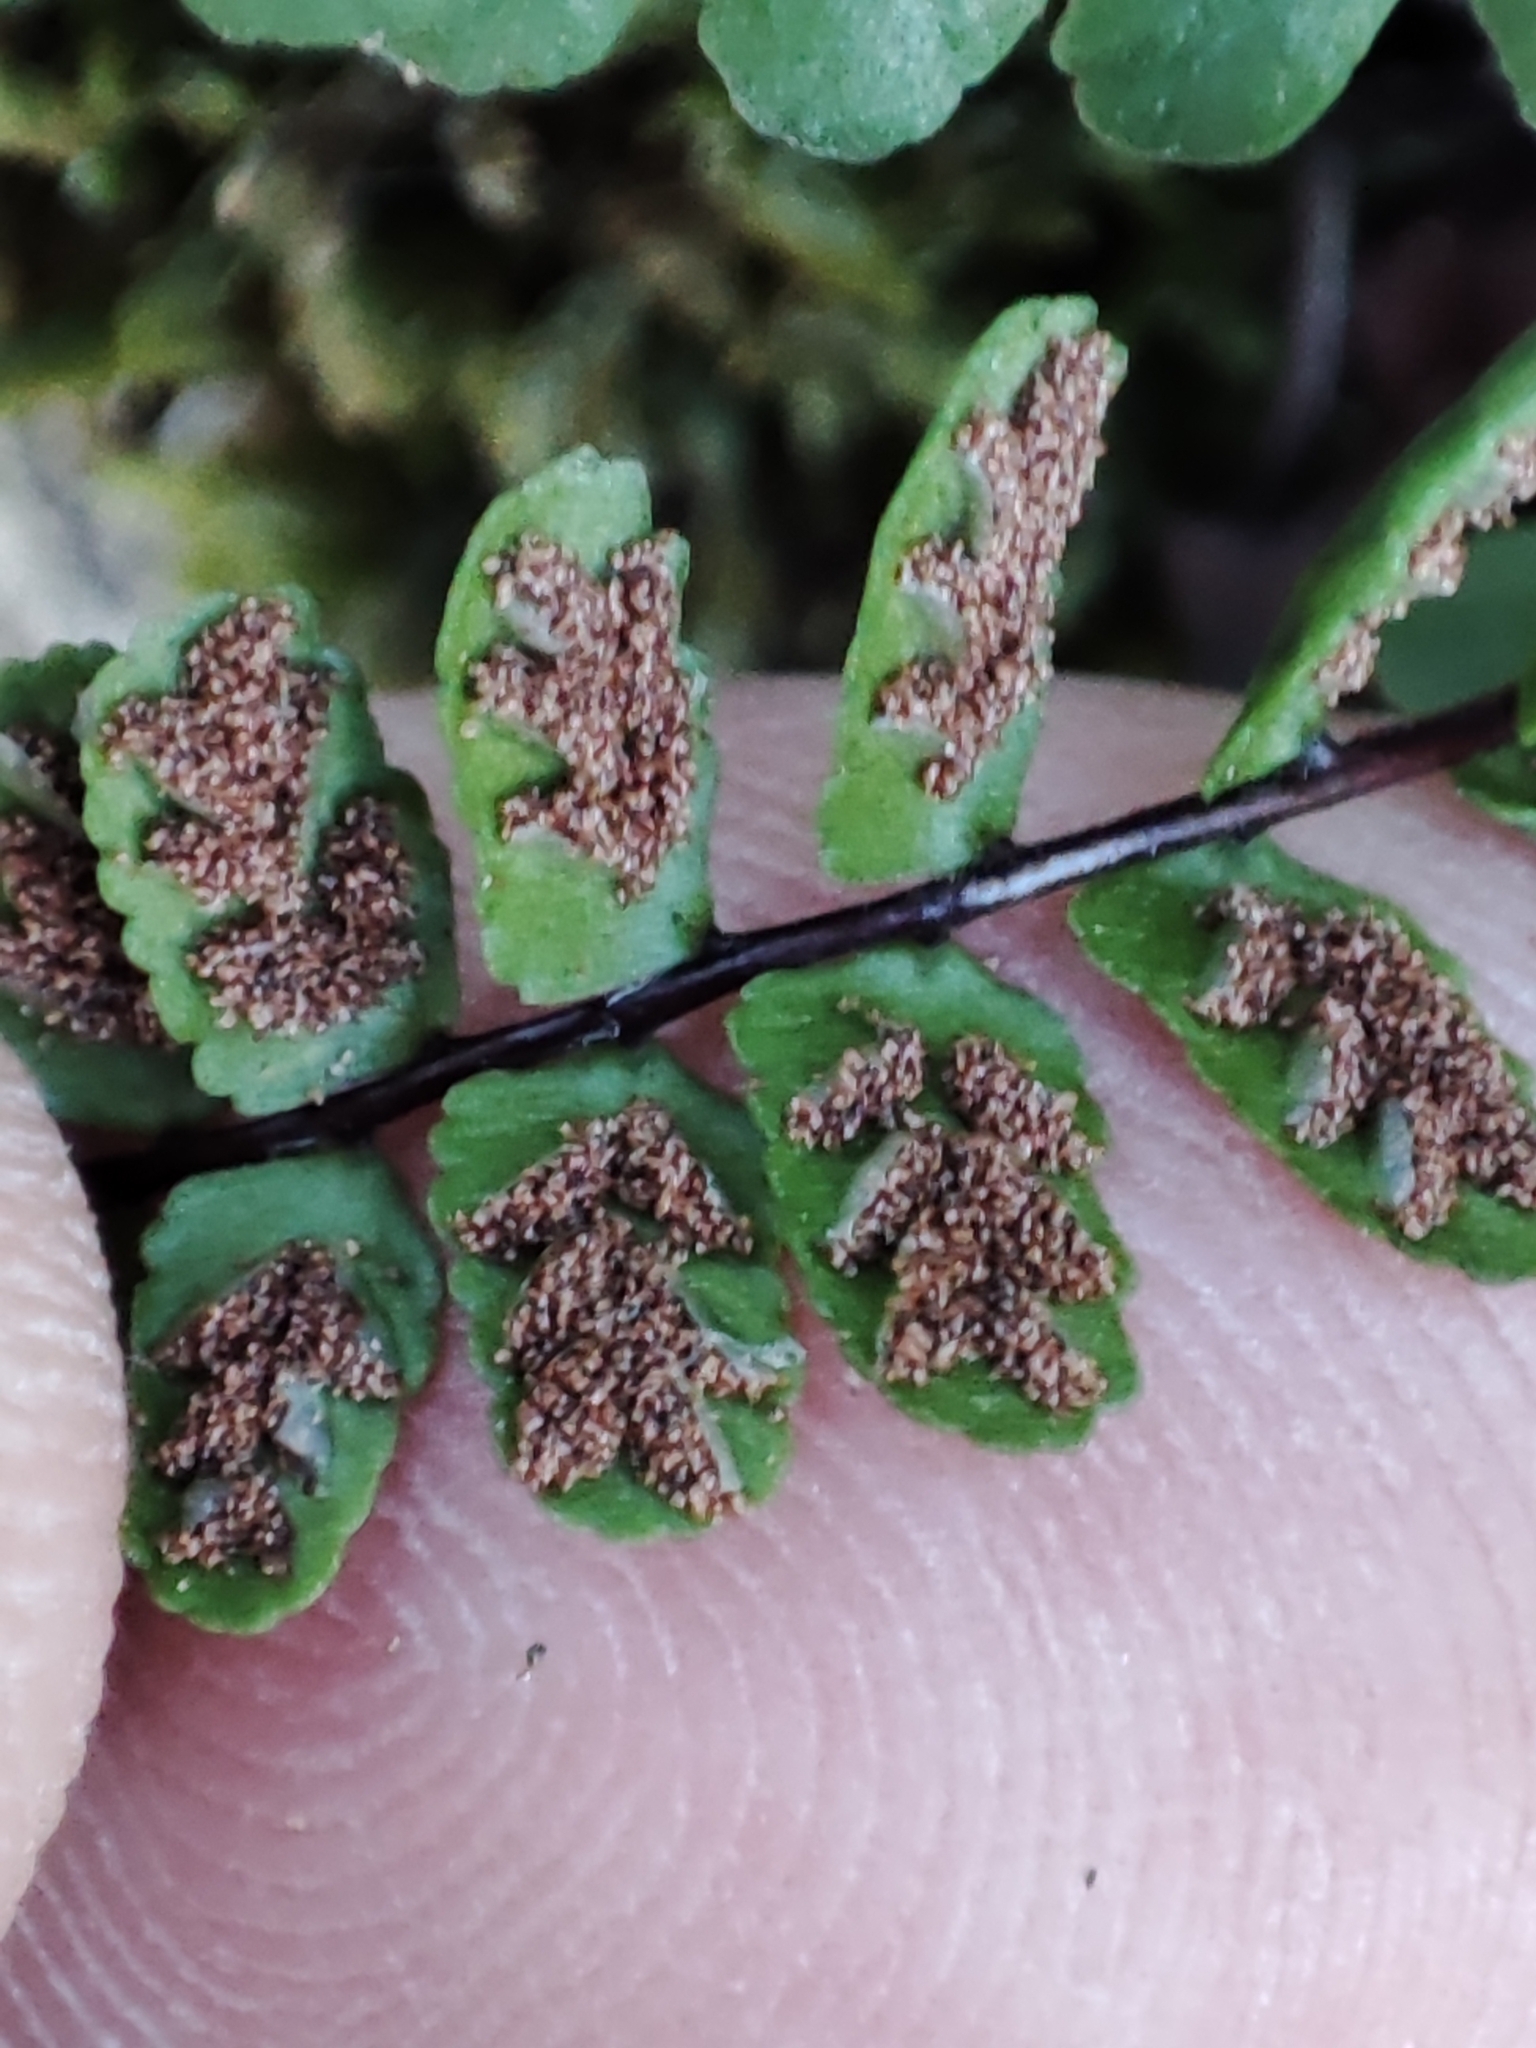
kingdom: Plantae
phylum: Tracheophyta
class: Polypodiopsida
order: Polypodiales
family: Aspleniaceae
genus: Asplenium
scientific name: Asplenium trichomanes
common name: Maidenhair spleenwort
